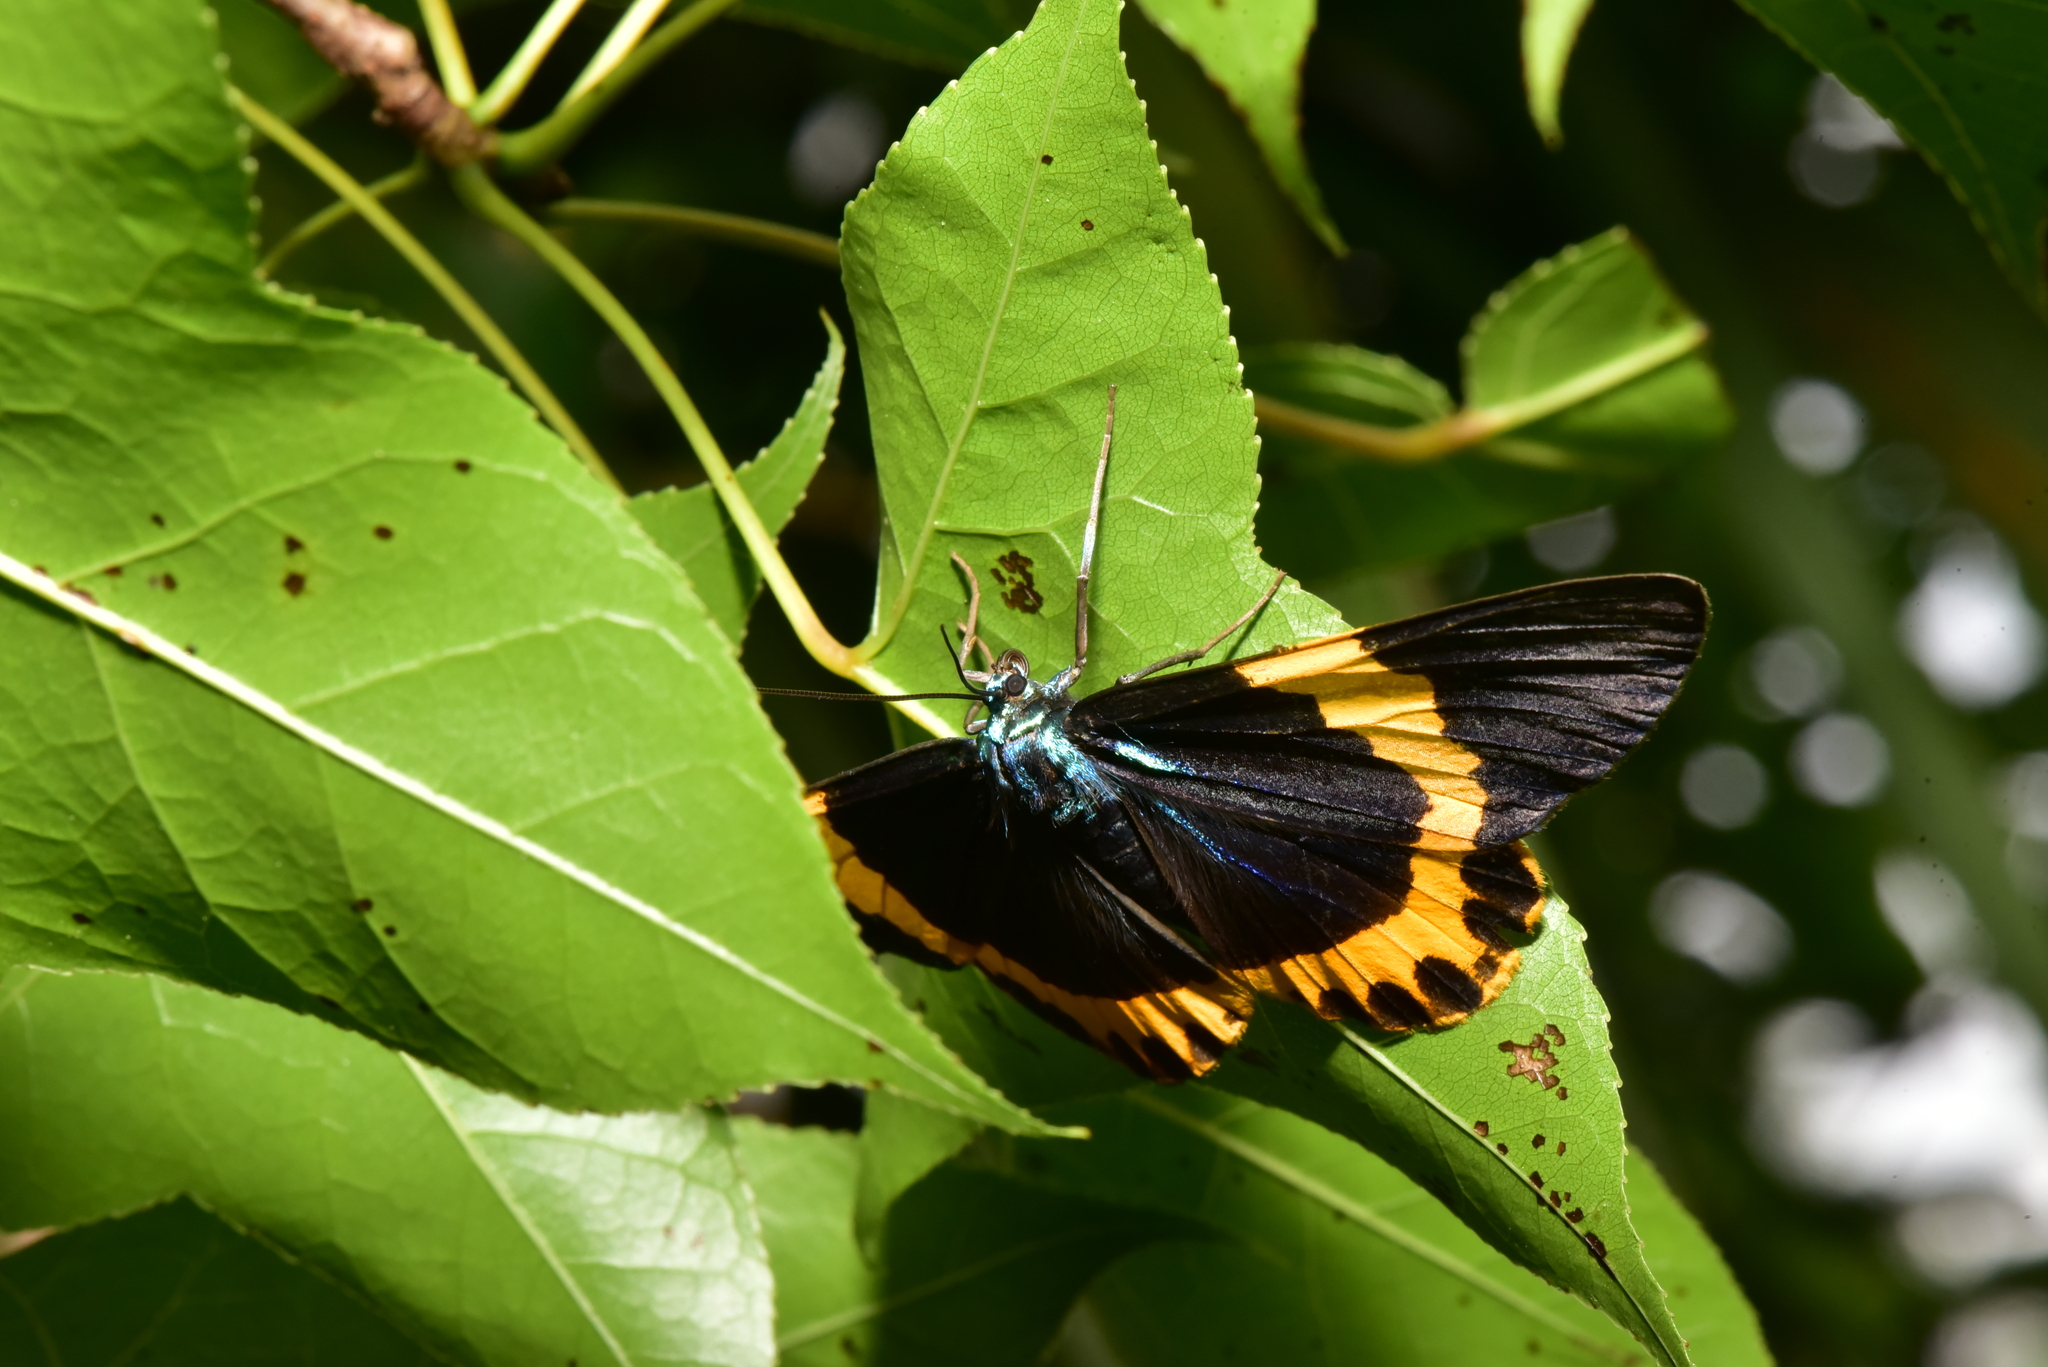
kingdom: Animalia
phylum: Arthropoda
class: Insecta
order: Lepidoptera
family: Geometridae
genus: Milionia
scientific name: Milionia basalis
